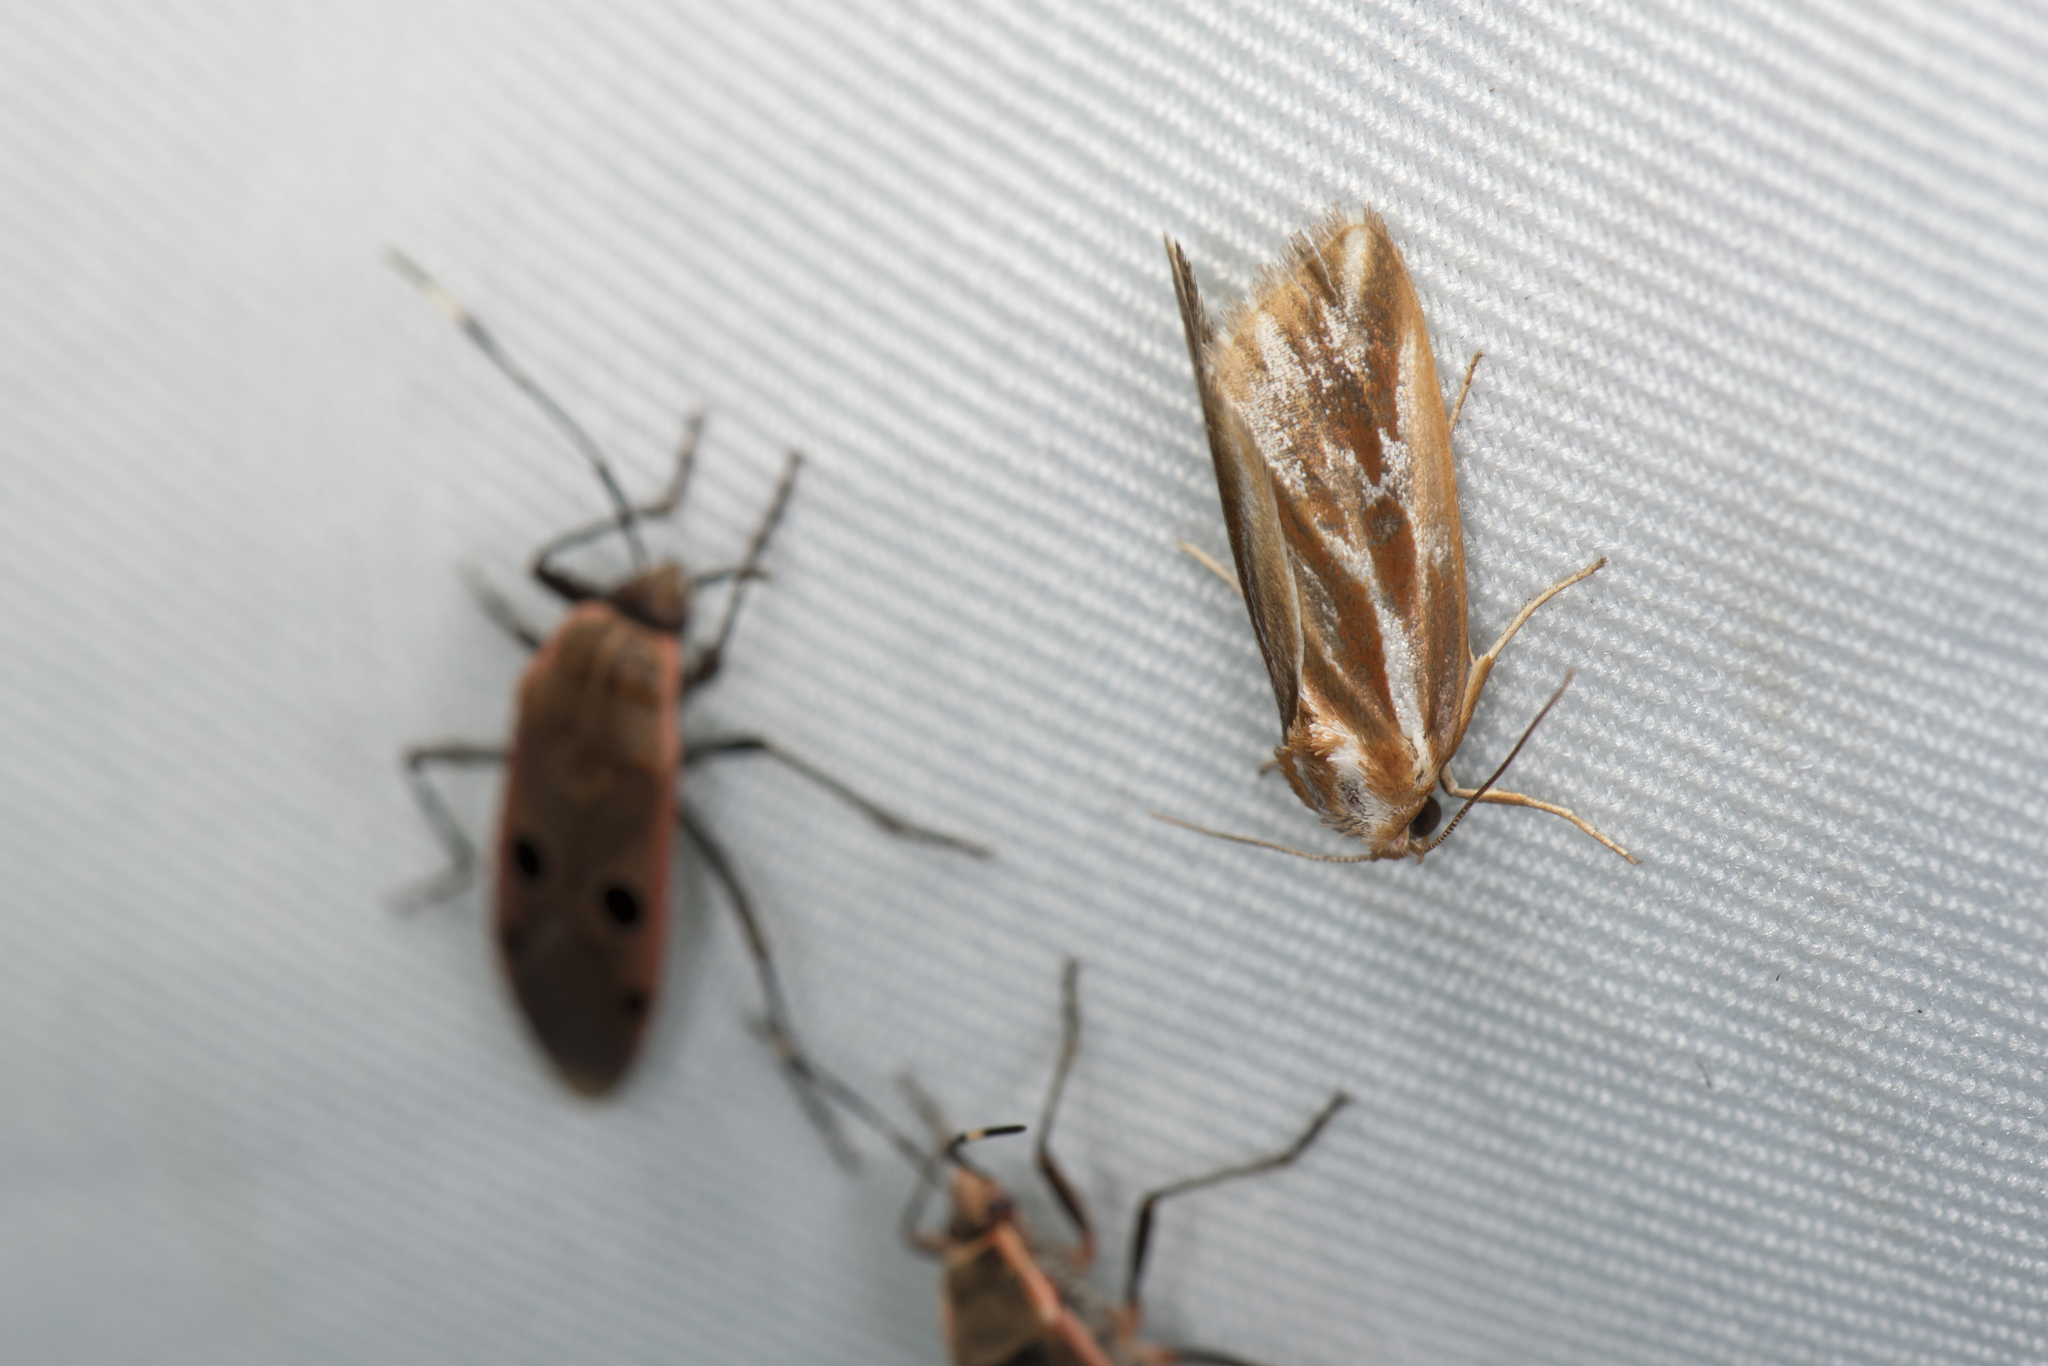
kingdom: Animalia
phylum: Arthropoda
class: Insecta
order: Lepidoptera
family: Noctuidae
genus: Narangodes
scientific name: Narangodes confluens
